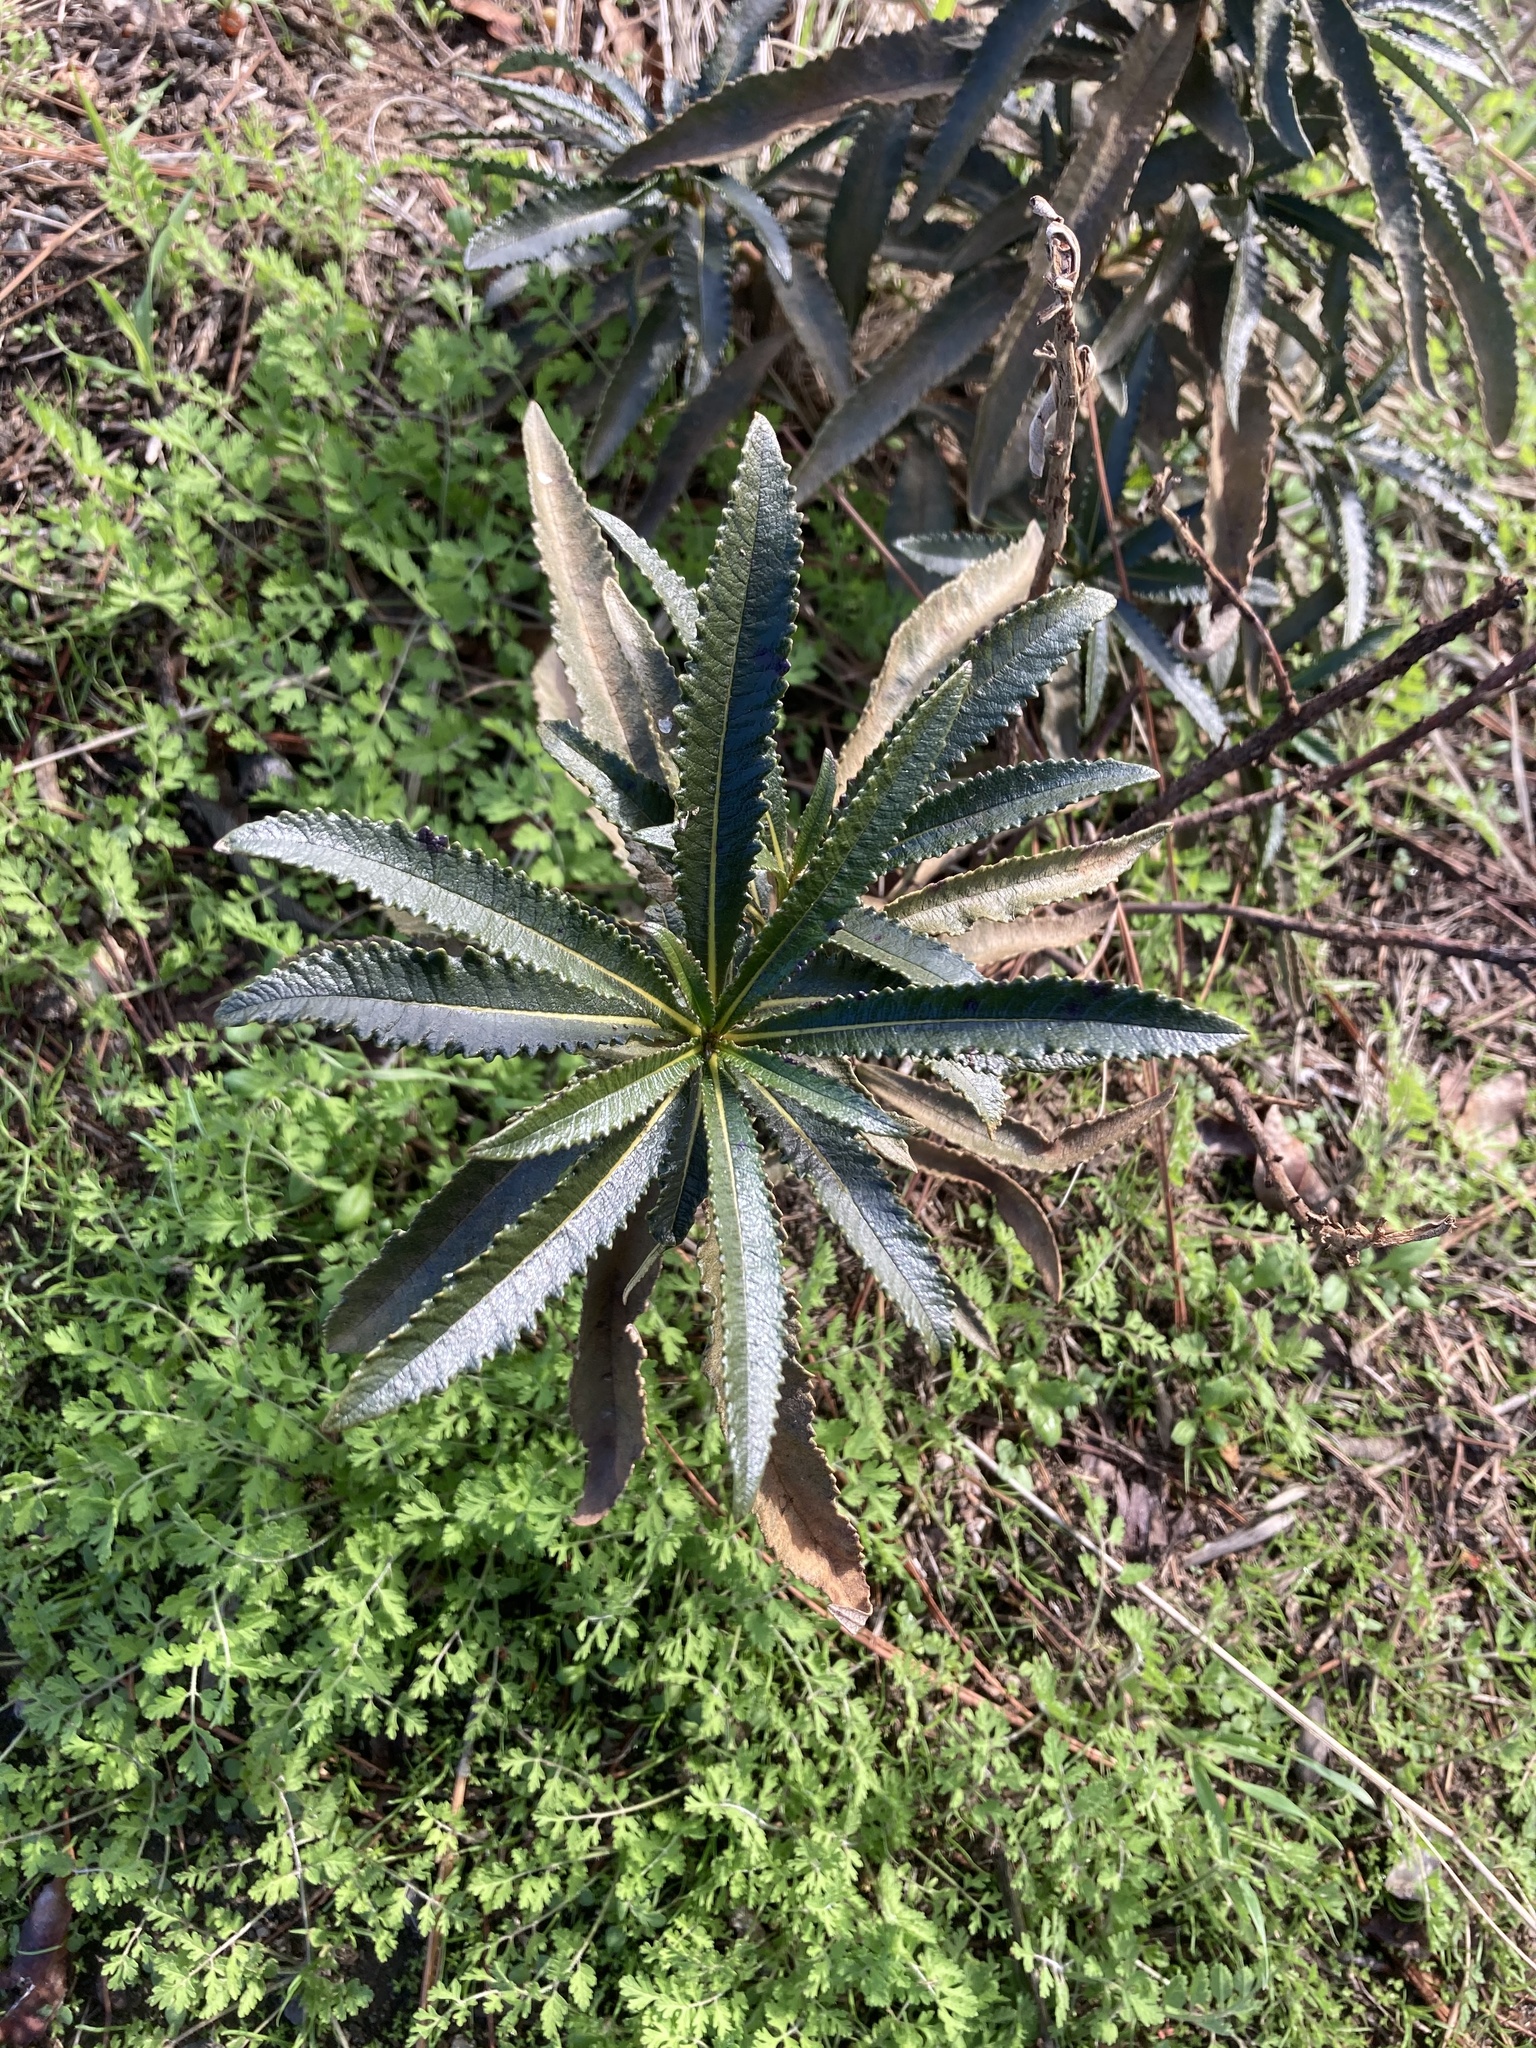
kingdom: Plantae
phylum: Tracheophyta
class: Magnoliopsida
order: Boraginales
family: Namaceae
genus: Eriodictyon
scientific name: Eriodictyon californicum
